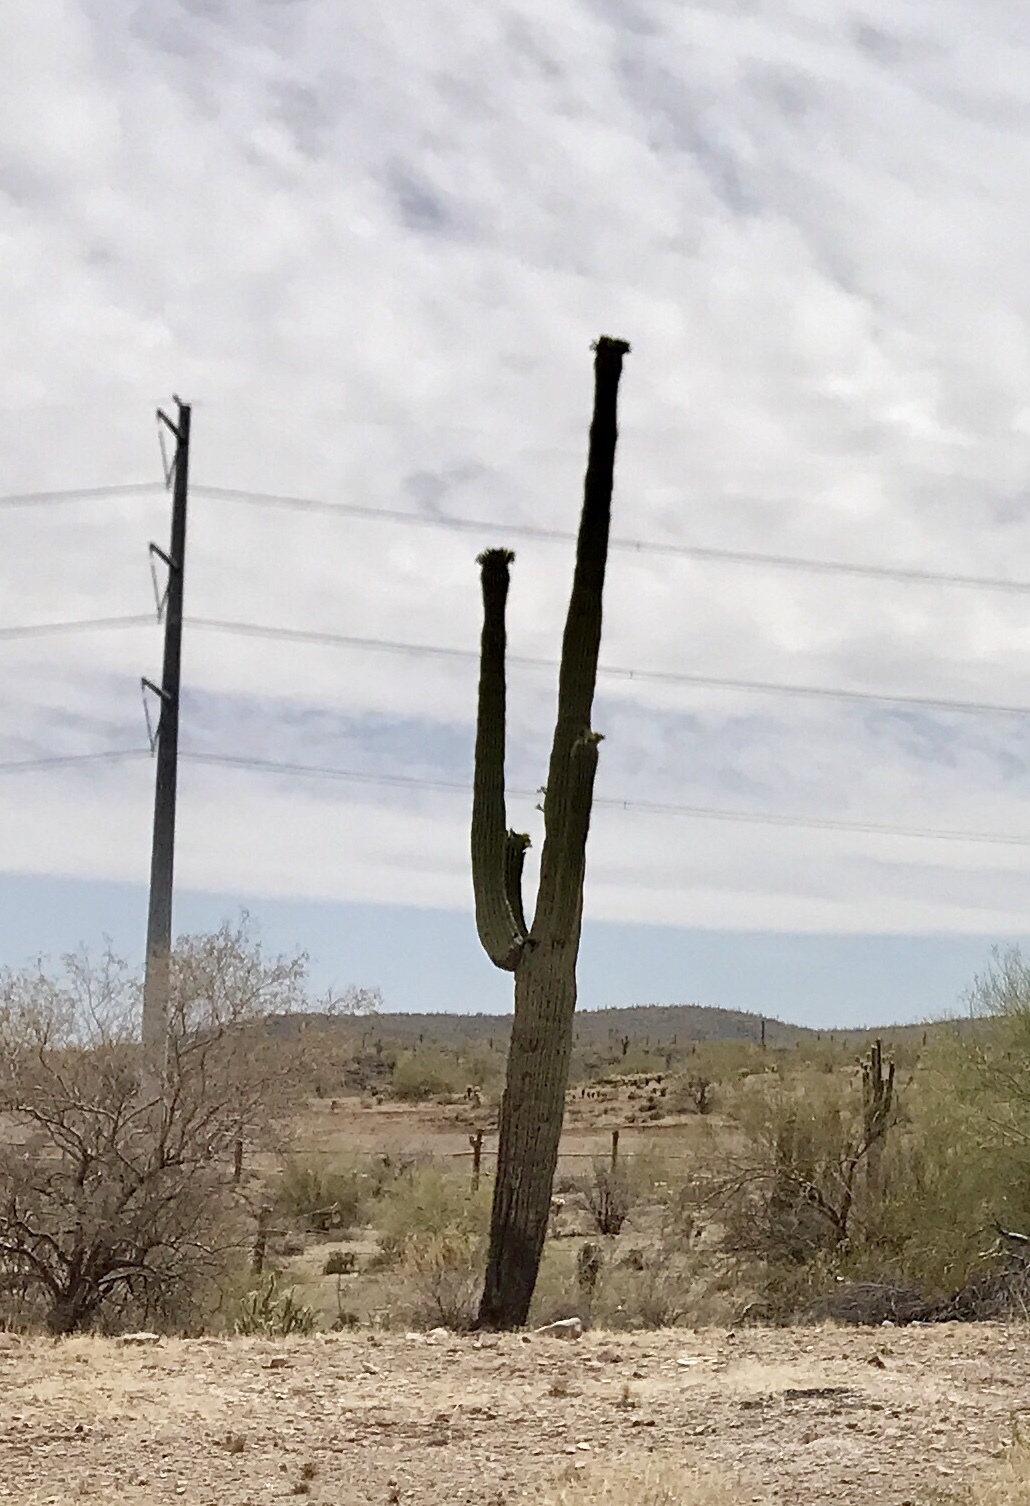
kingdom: Plantae
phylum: Tracheophyta
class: Magnoliopsida
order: Caryophyllales
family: Cactaceae
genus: Carnegiea
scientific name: Carnegiea gigantea
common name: Saguaro
